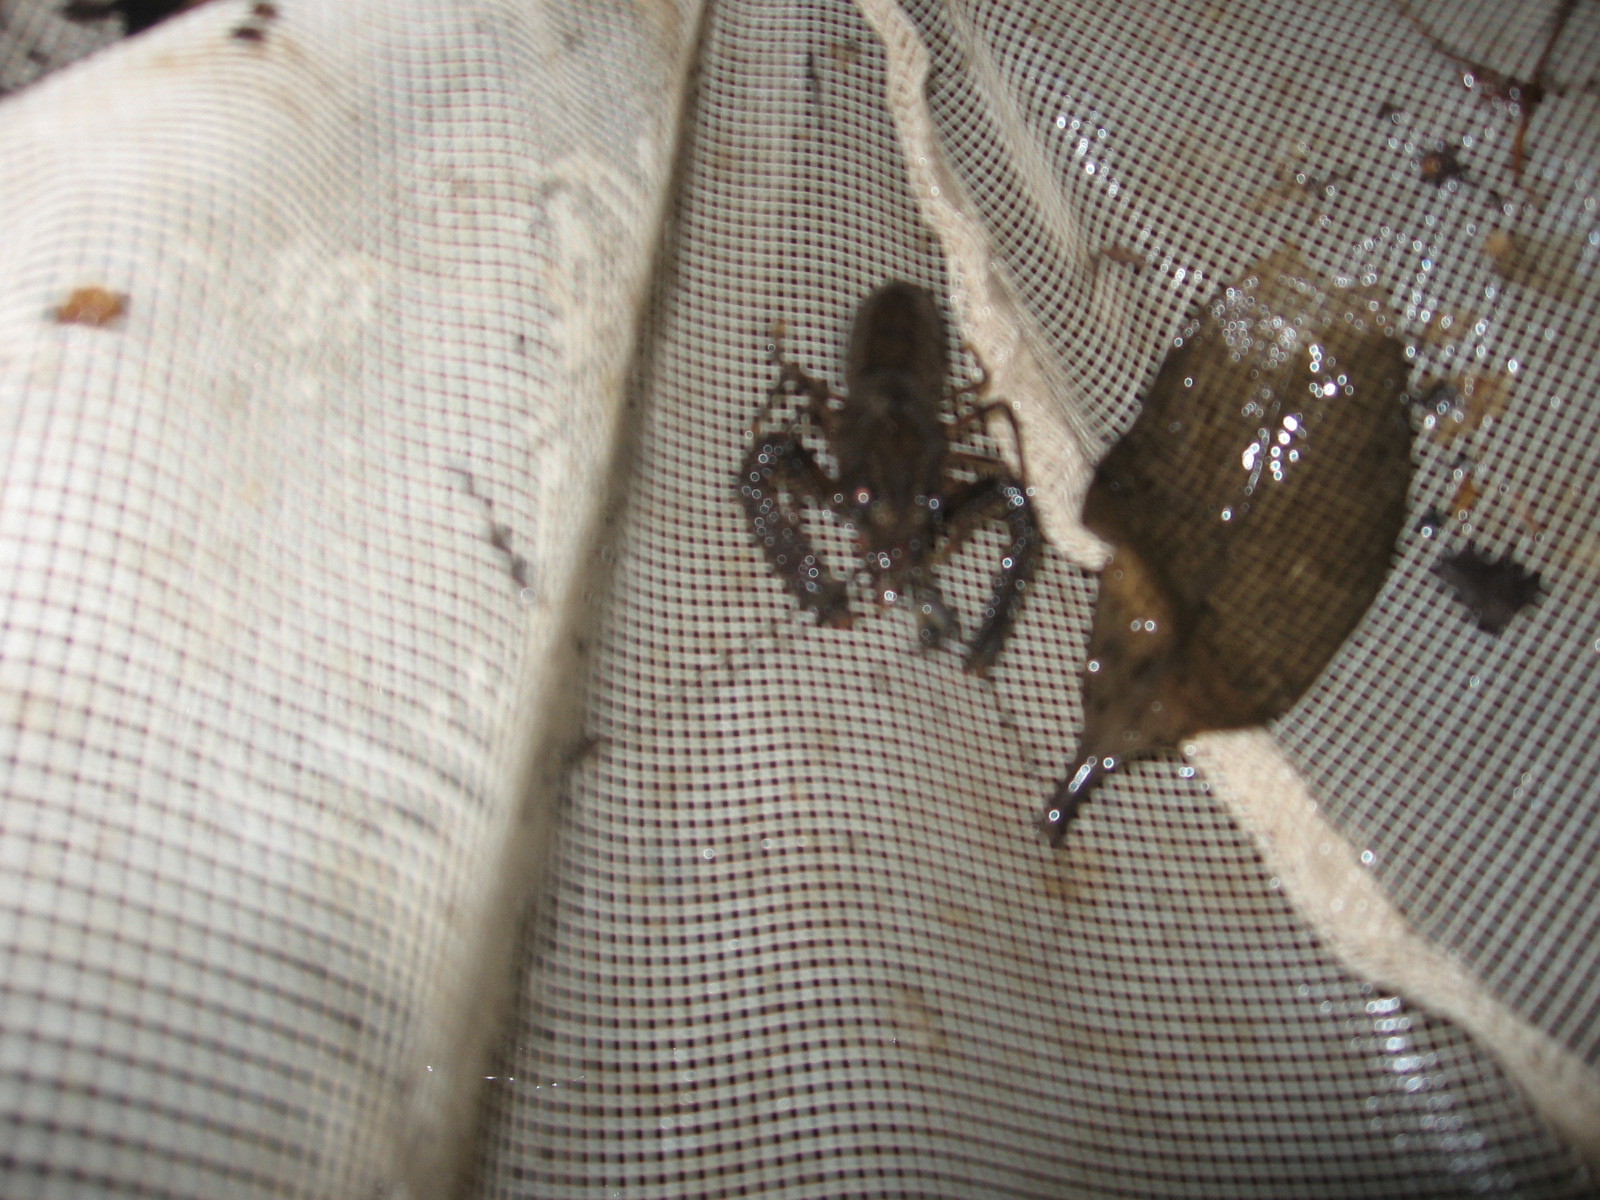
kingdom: Animalia
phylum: Arthropoda
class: Malacostraca
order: Decapoda
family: Parastacidae
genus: Paranephrops
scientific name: Paranephrops planifrons
